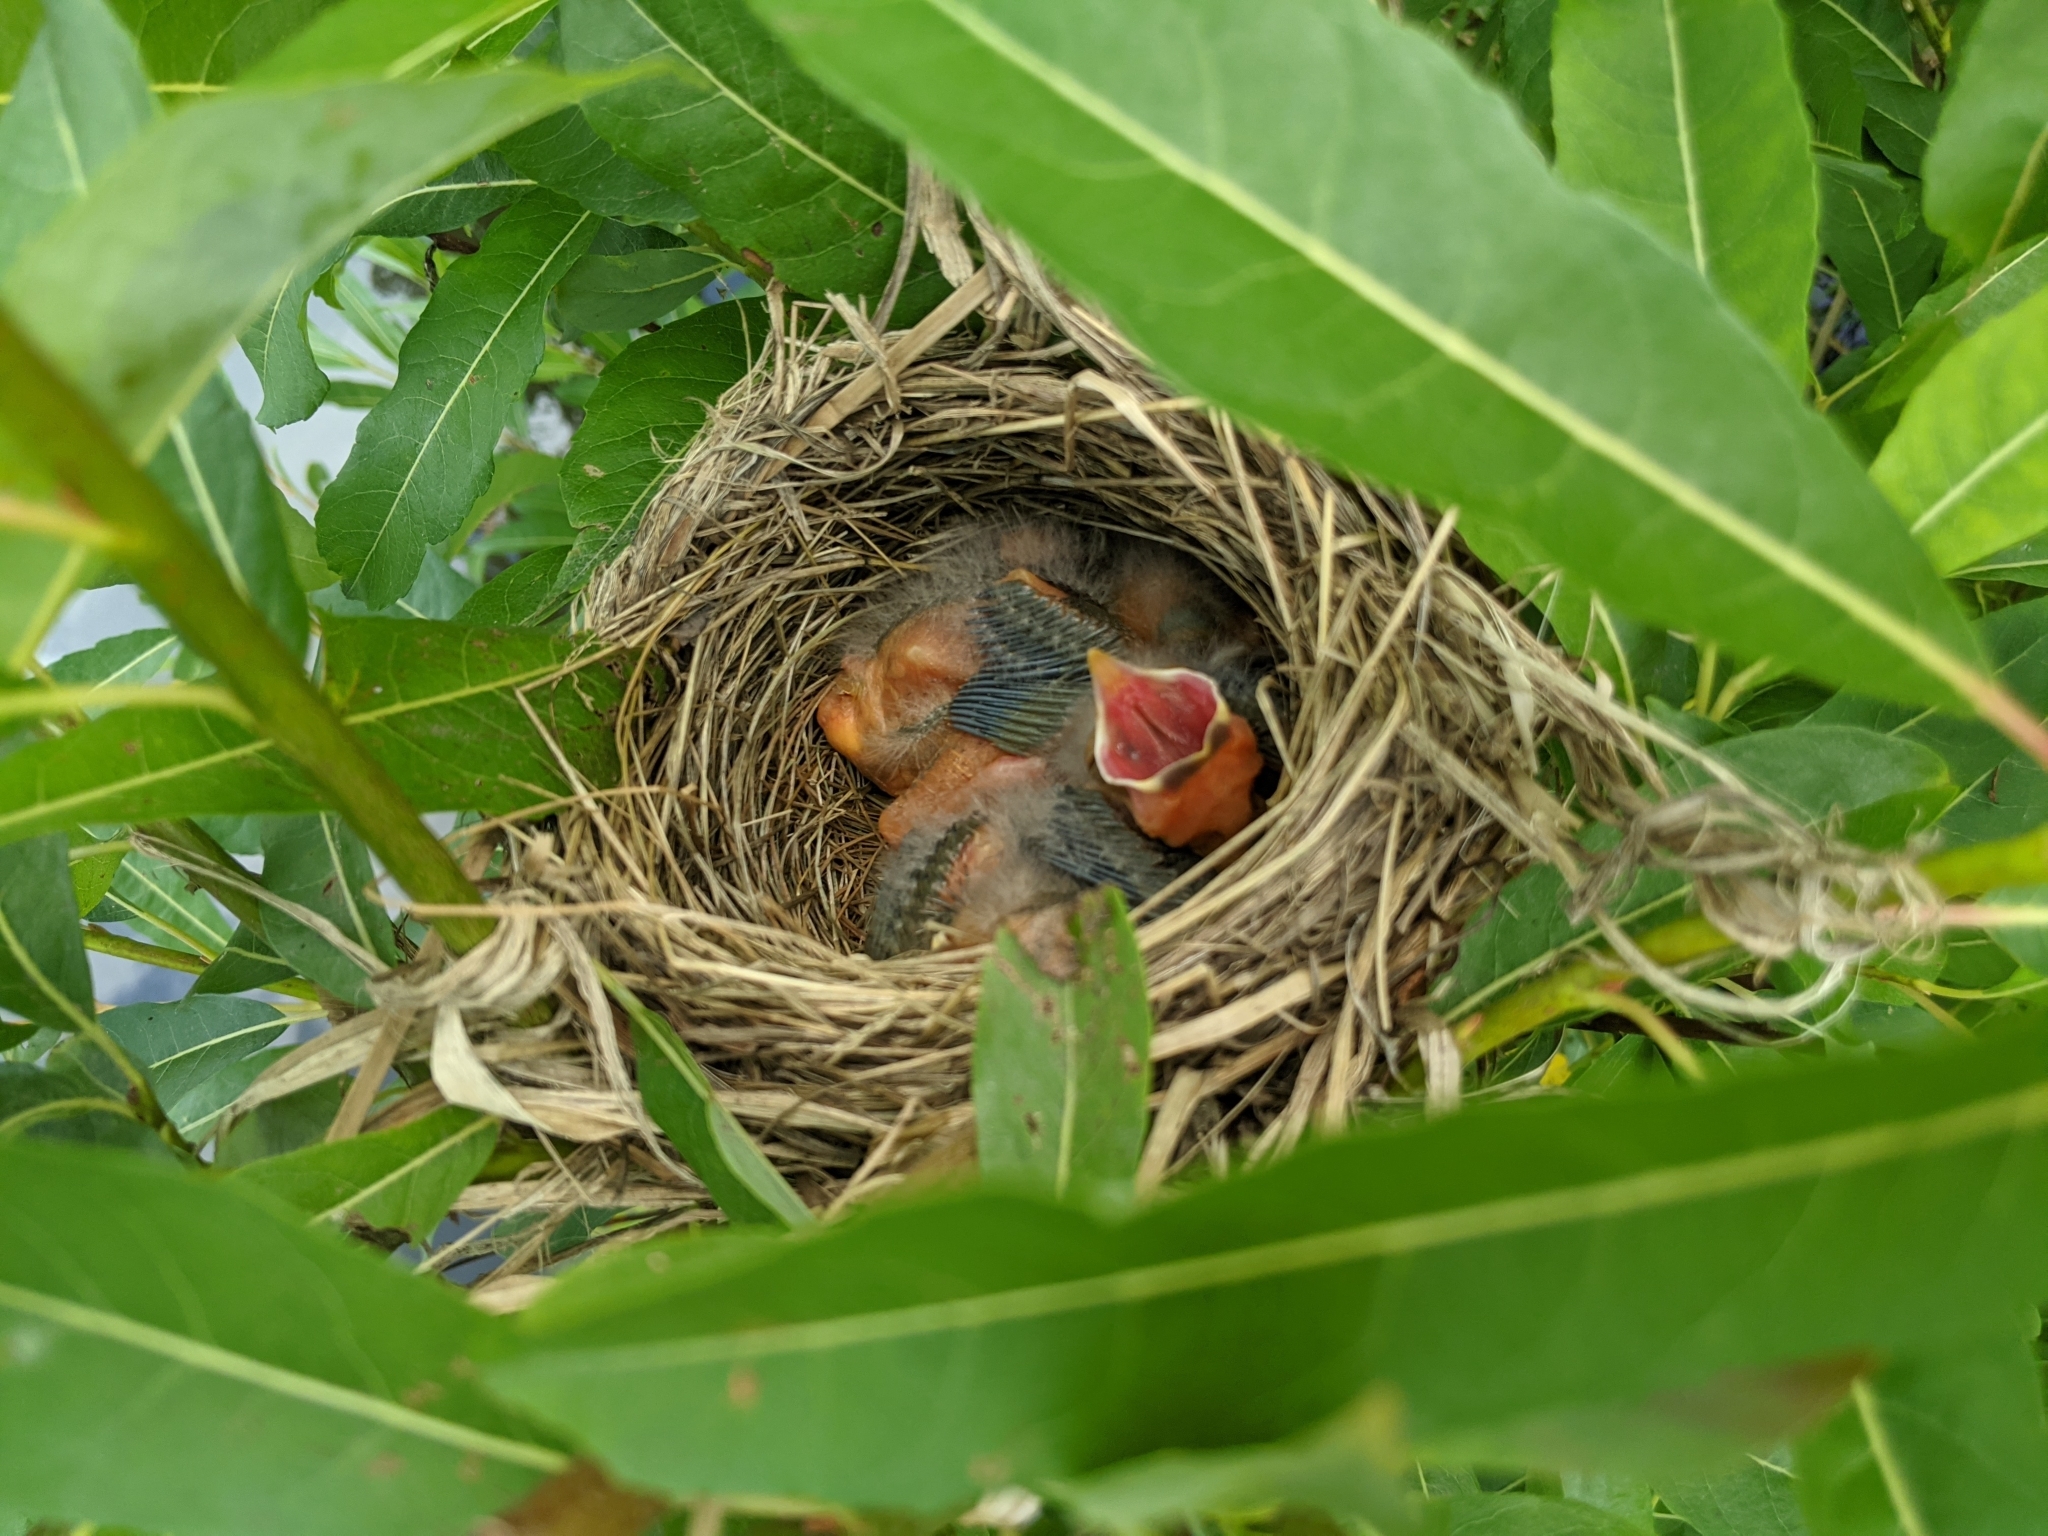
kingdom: Animalia
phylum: Chordata
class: Aves
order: Passeriformes
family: Icteridae
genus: Agelaius
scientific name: Agelaius phoeniceus
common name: Red-winged blackbird
